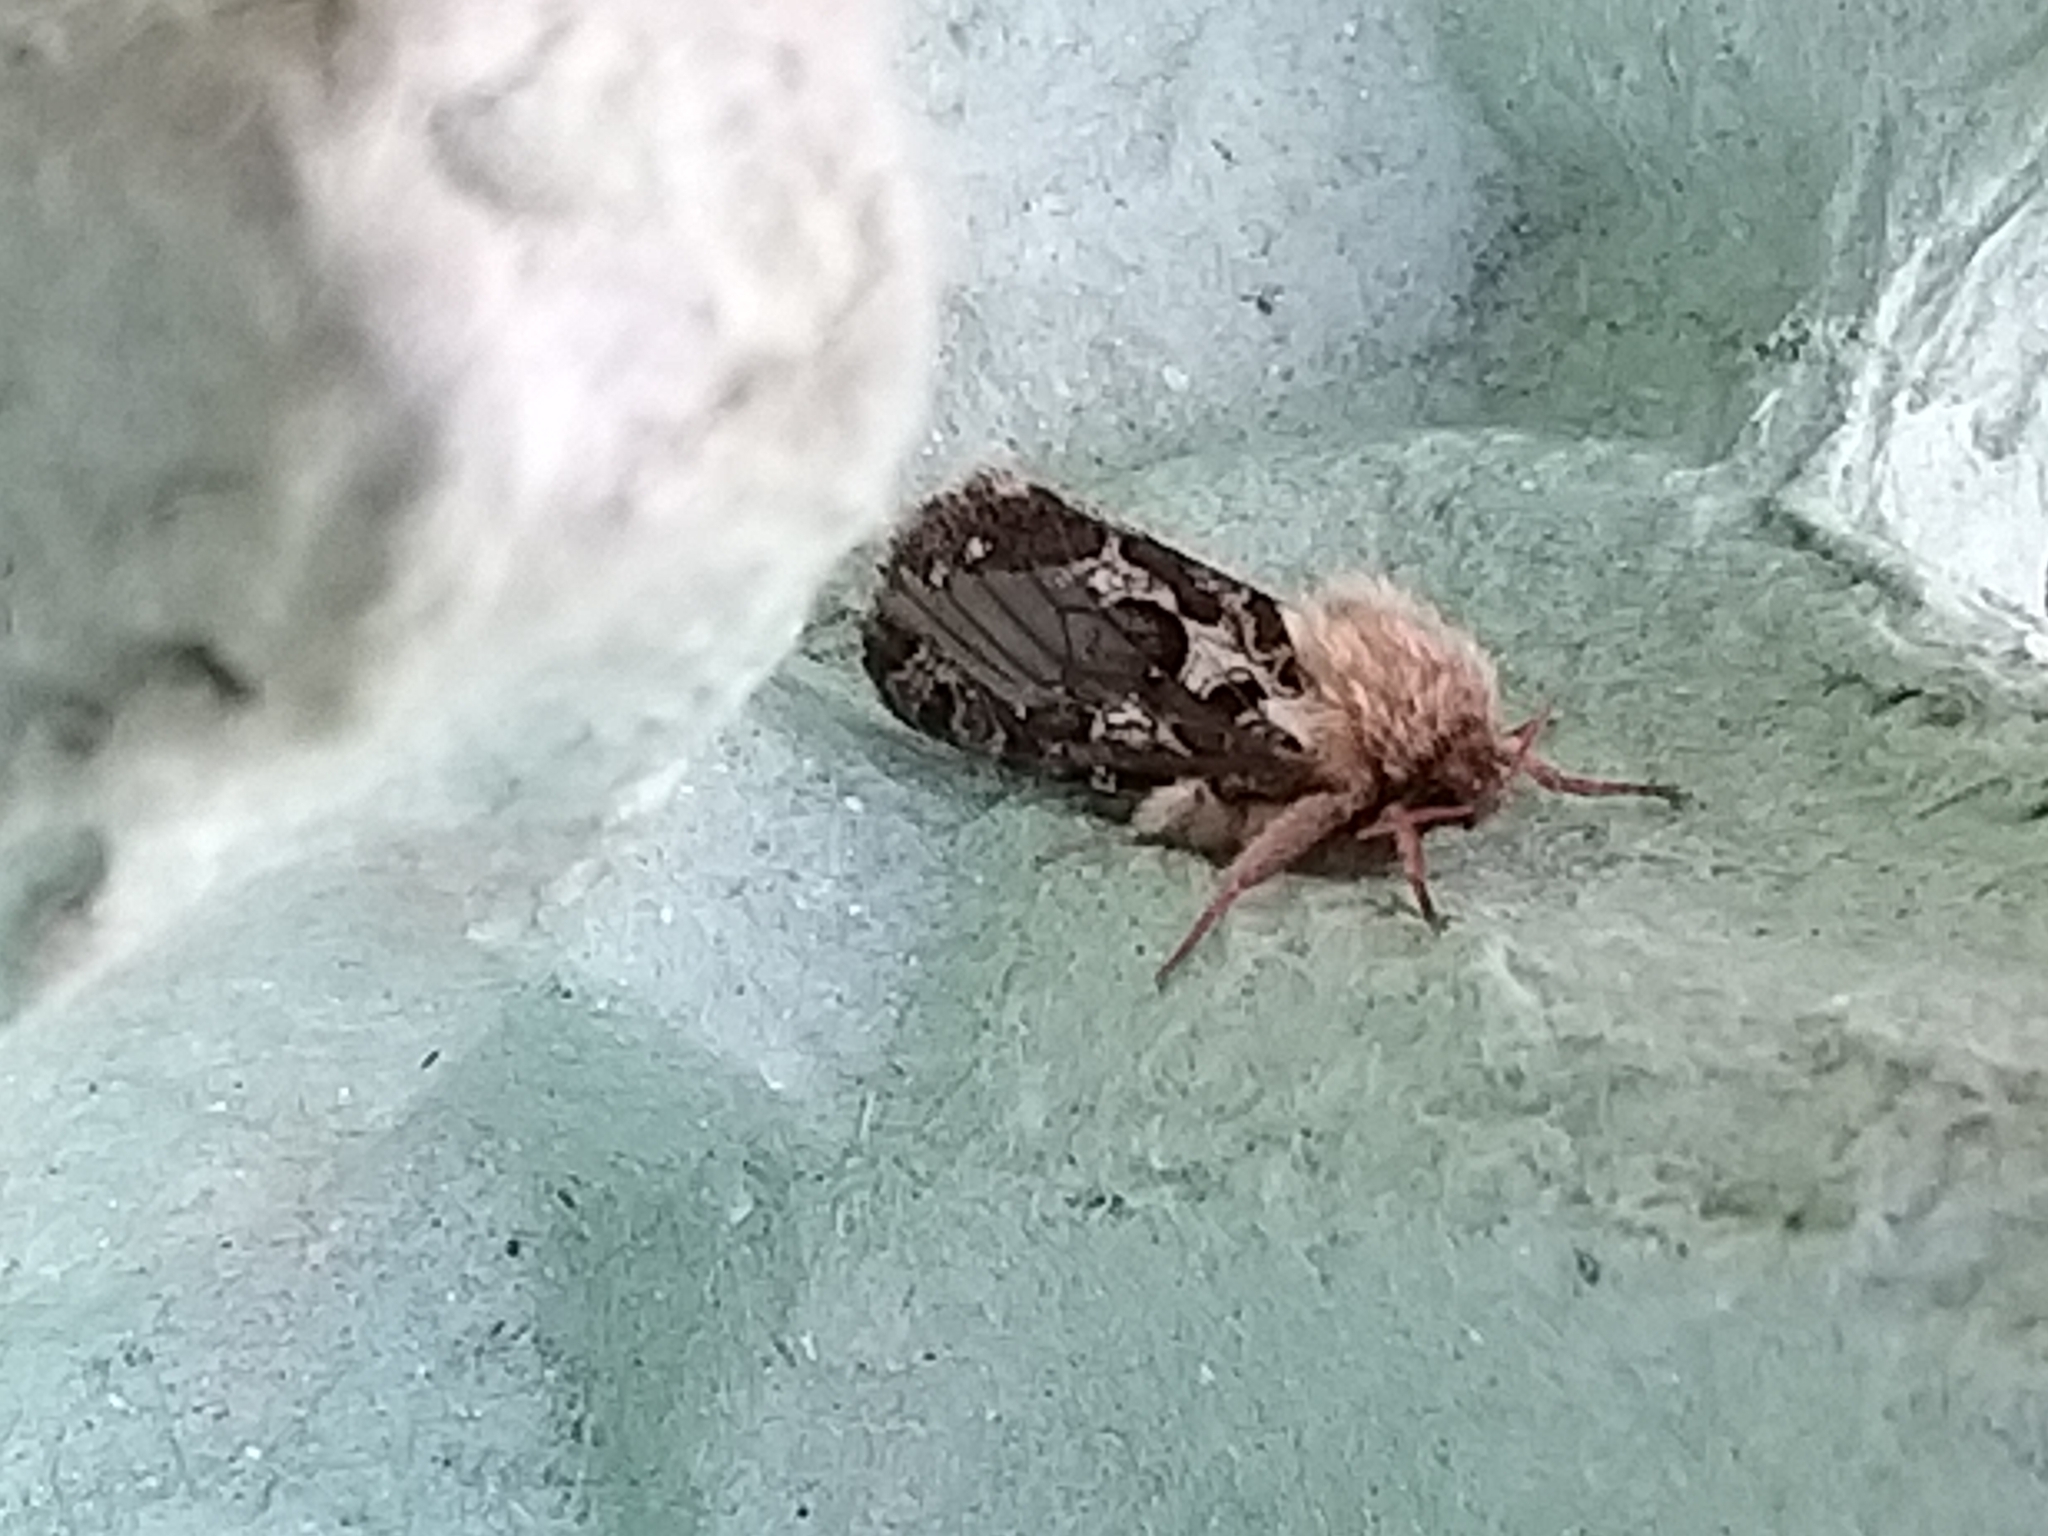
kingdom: Animalia
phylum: Arthropoda
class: Insecta
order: Lepidoptera
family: Hepialidae
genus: Korscheltellus
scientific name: Korscheltellus fusconebulosus
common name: Map-winged swift
